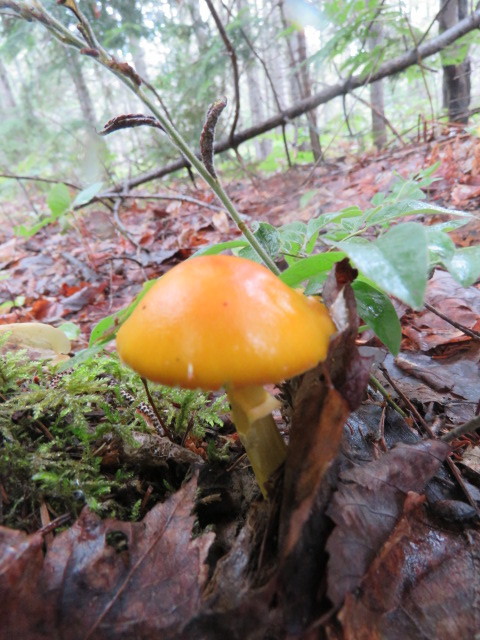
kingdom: Fungi
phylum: Basidiomycota
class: Agaricomycetes
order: Agaricales
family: Amanitaceae
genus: Amanita
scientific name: Amanita flavoconia
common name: Yellow patches
